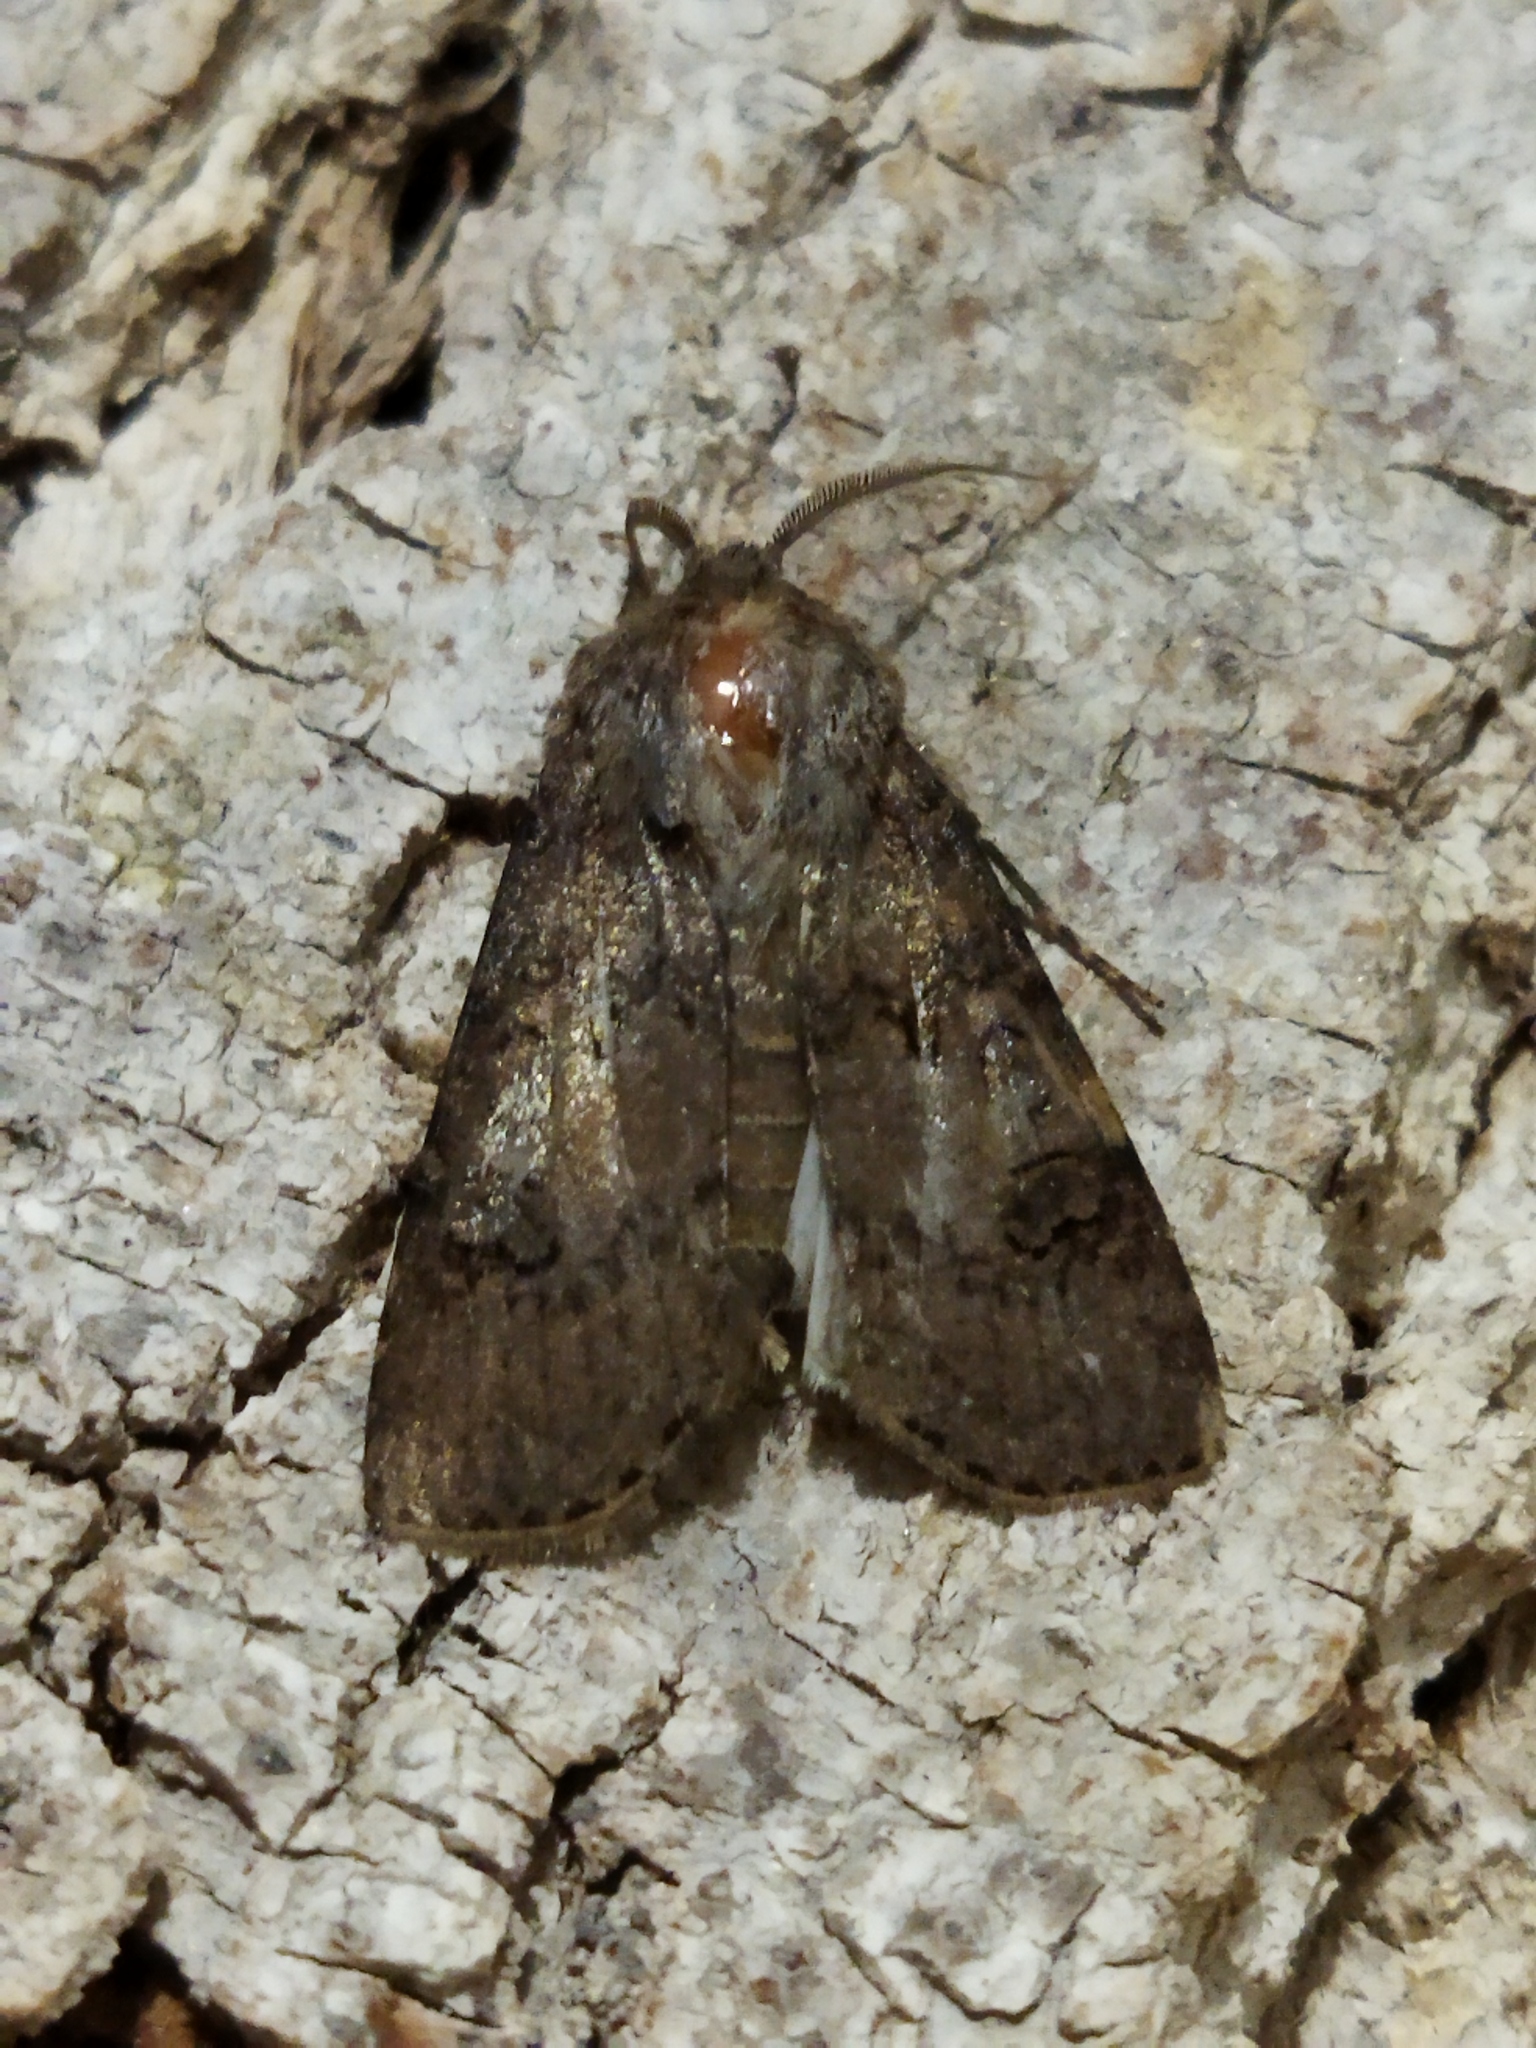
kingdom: Animalia
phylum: Arthropoda
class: Insecta
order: Lepidoptera
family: Noctuidae
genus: Agrotis
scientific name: Agrotis segetum
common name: Turnip moth
